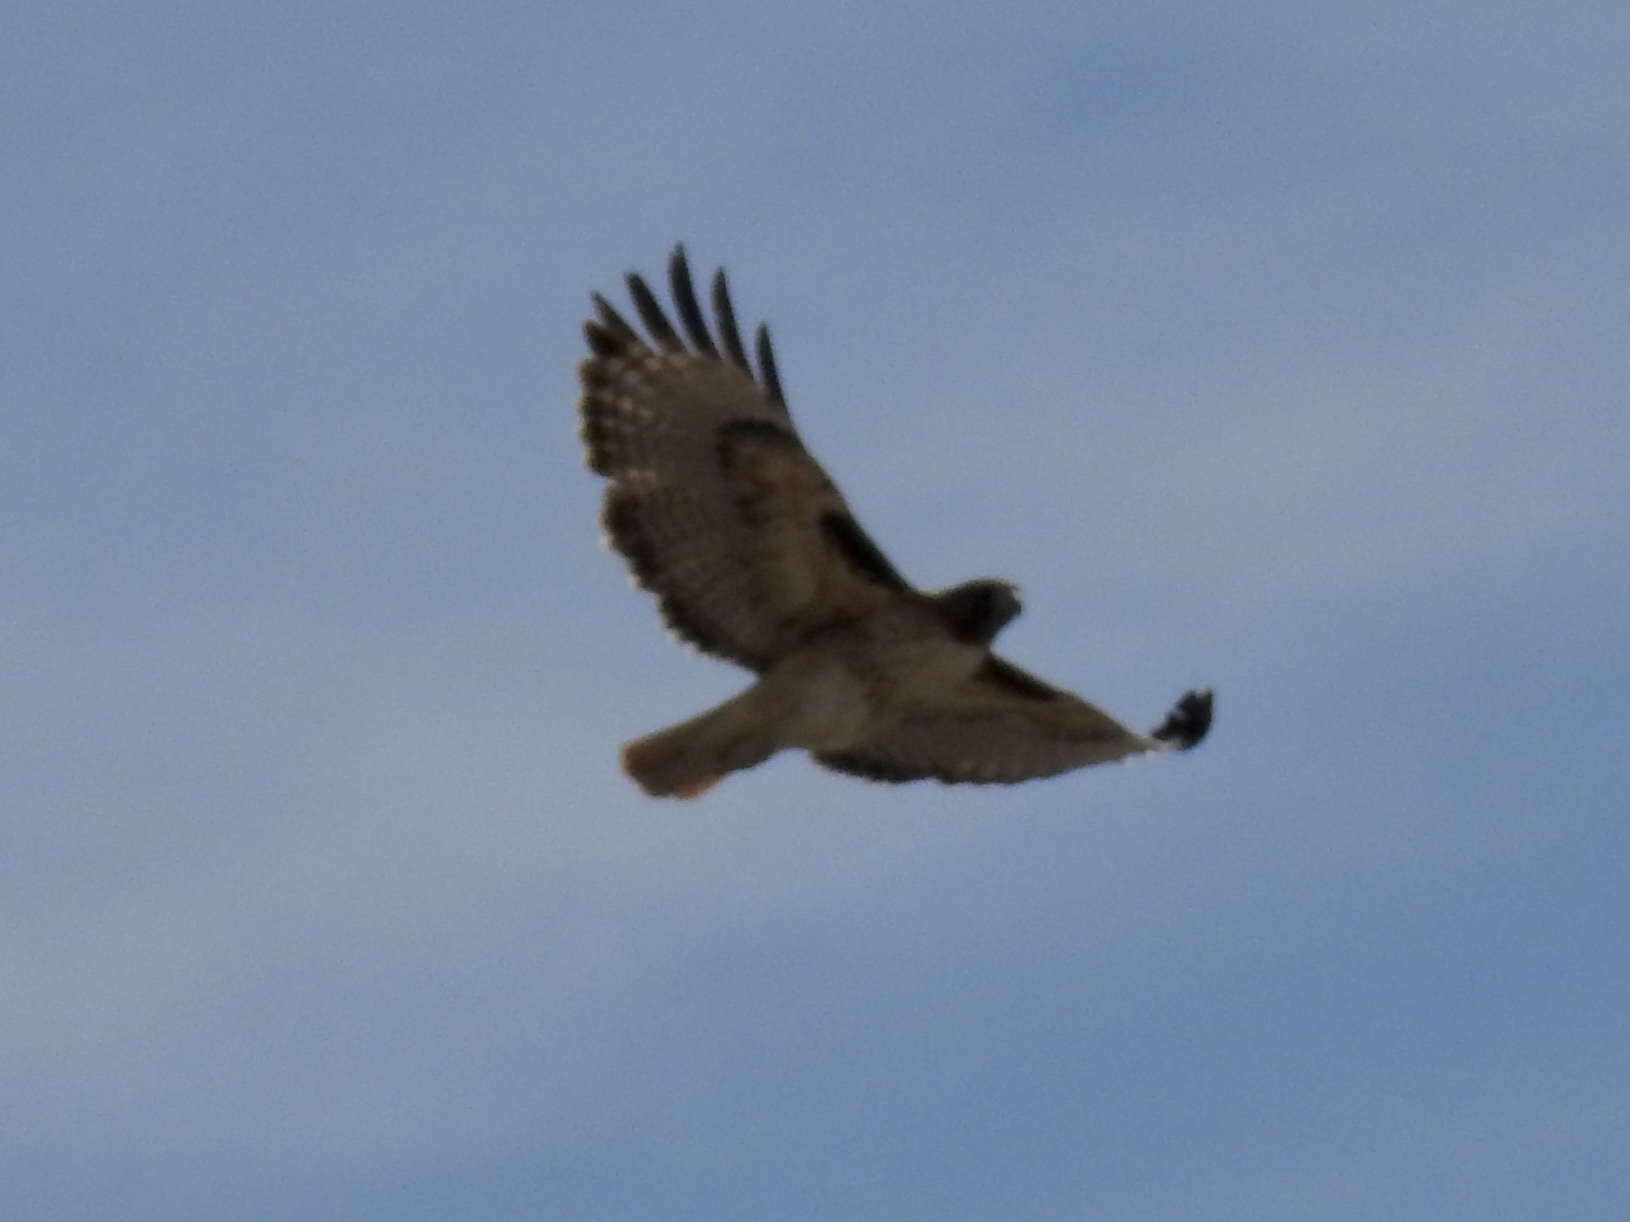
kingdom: Animalia
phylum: Chordata
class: Aves
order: Accipitriformes
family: Accipitridae
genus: Buteo
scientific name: Buteo jamaicensis
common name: Red-tailed hawk
